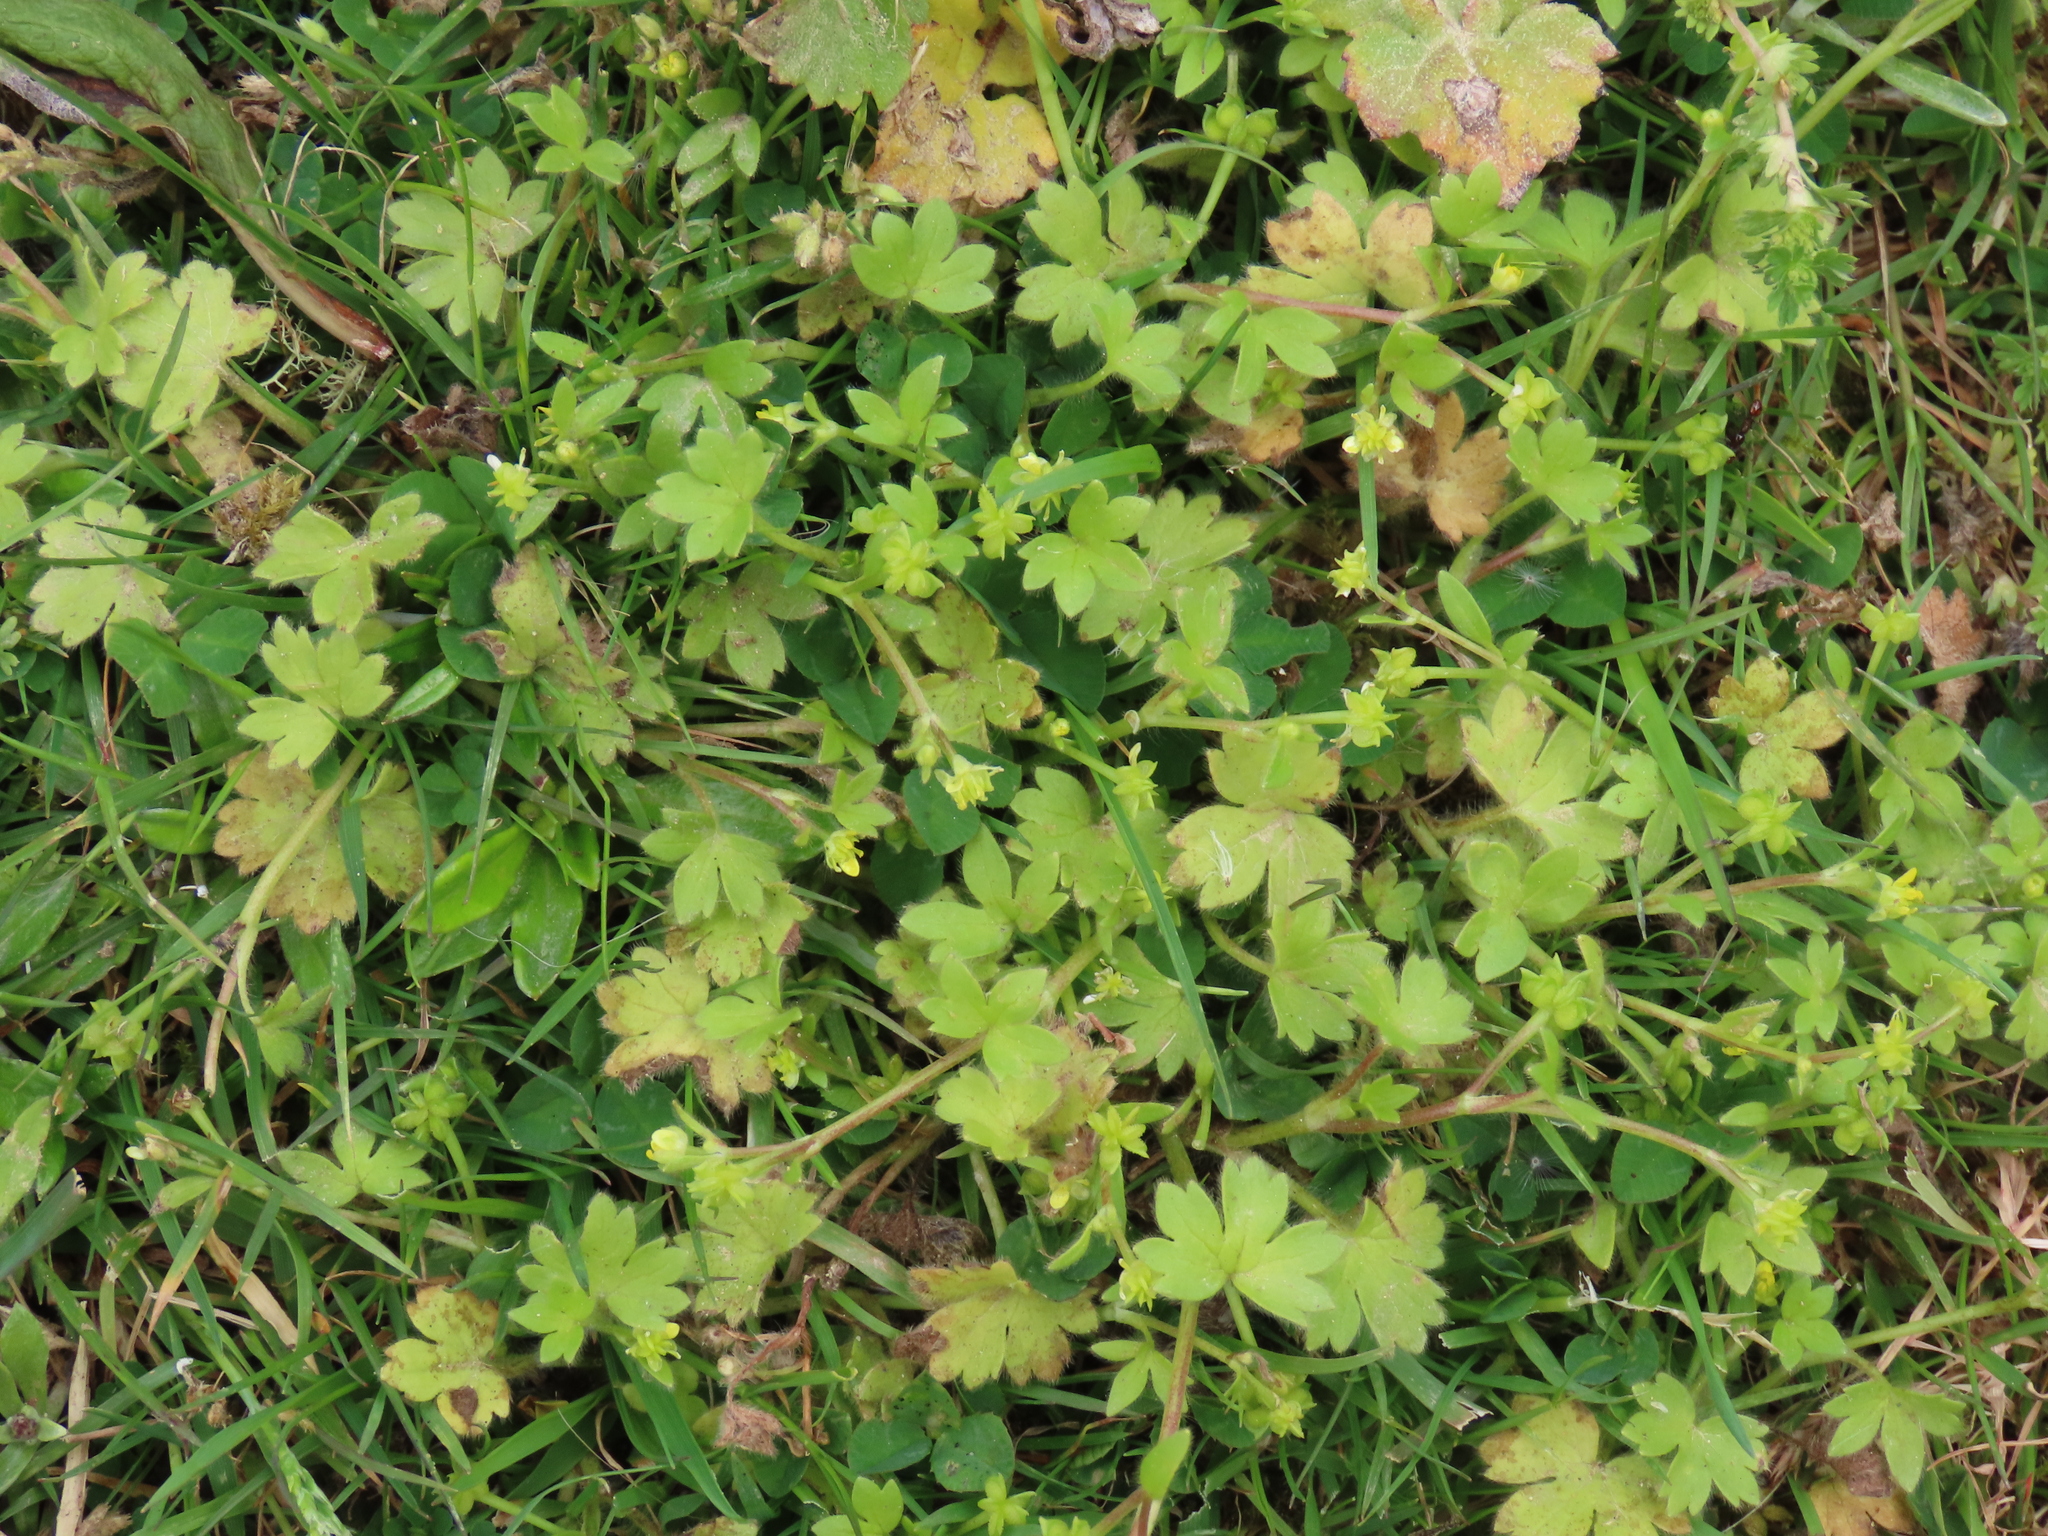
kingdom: Plantae
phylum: Tracheophyta
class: Magnoliopsida
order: Ranunculales
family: Ranunculaceae
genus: Ranunculus
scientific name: Ranunculus parviflorus
